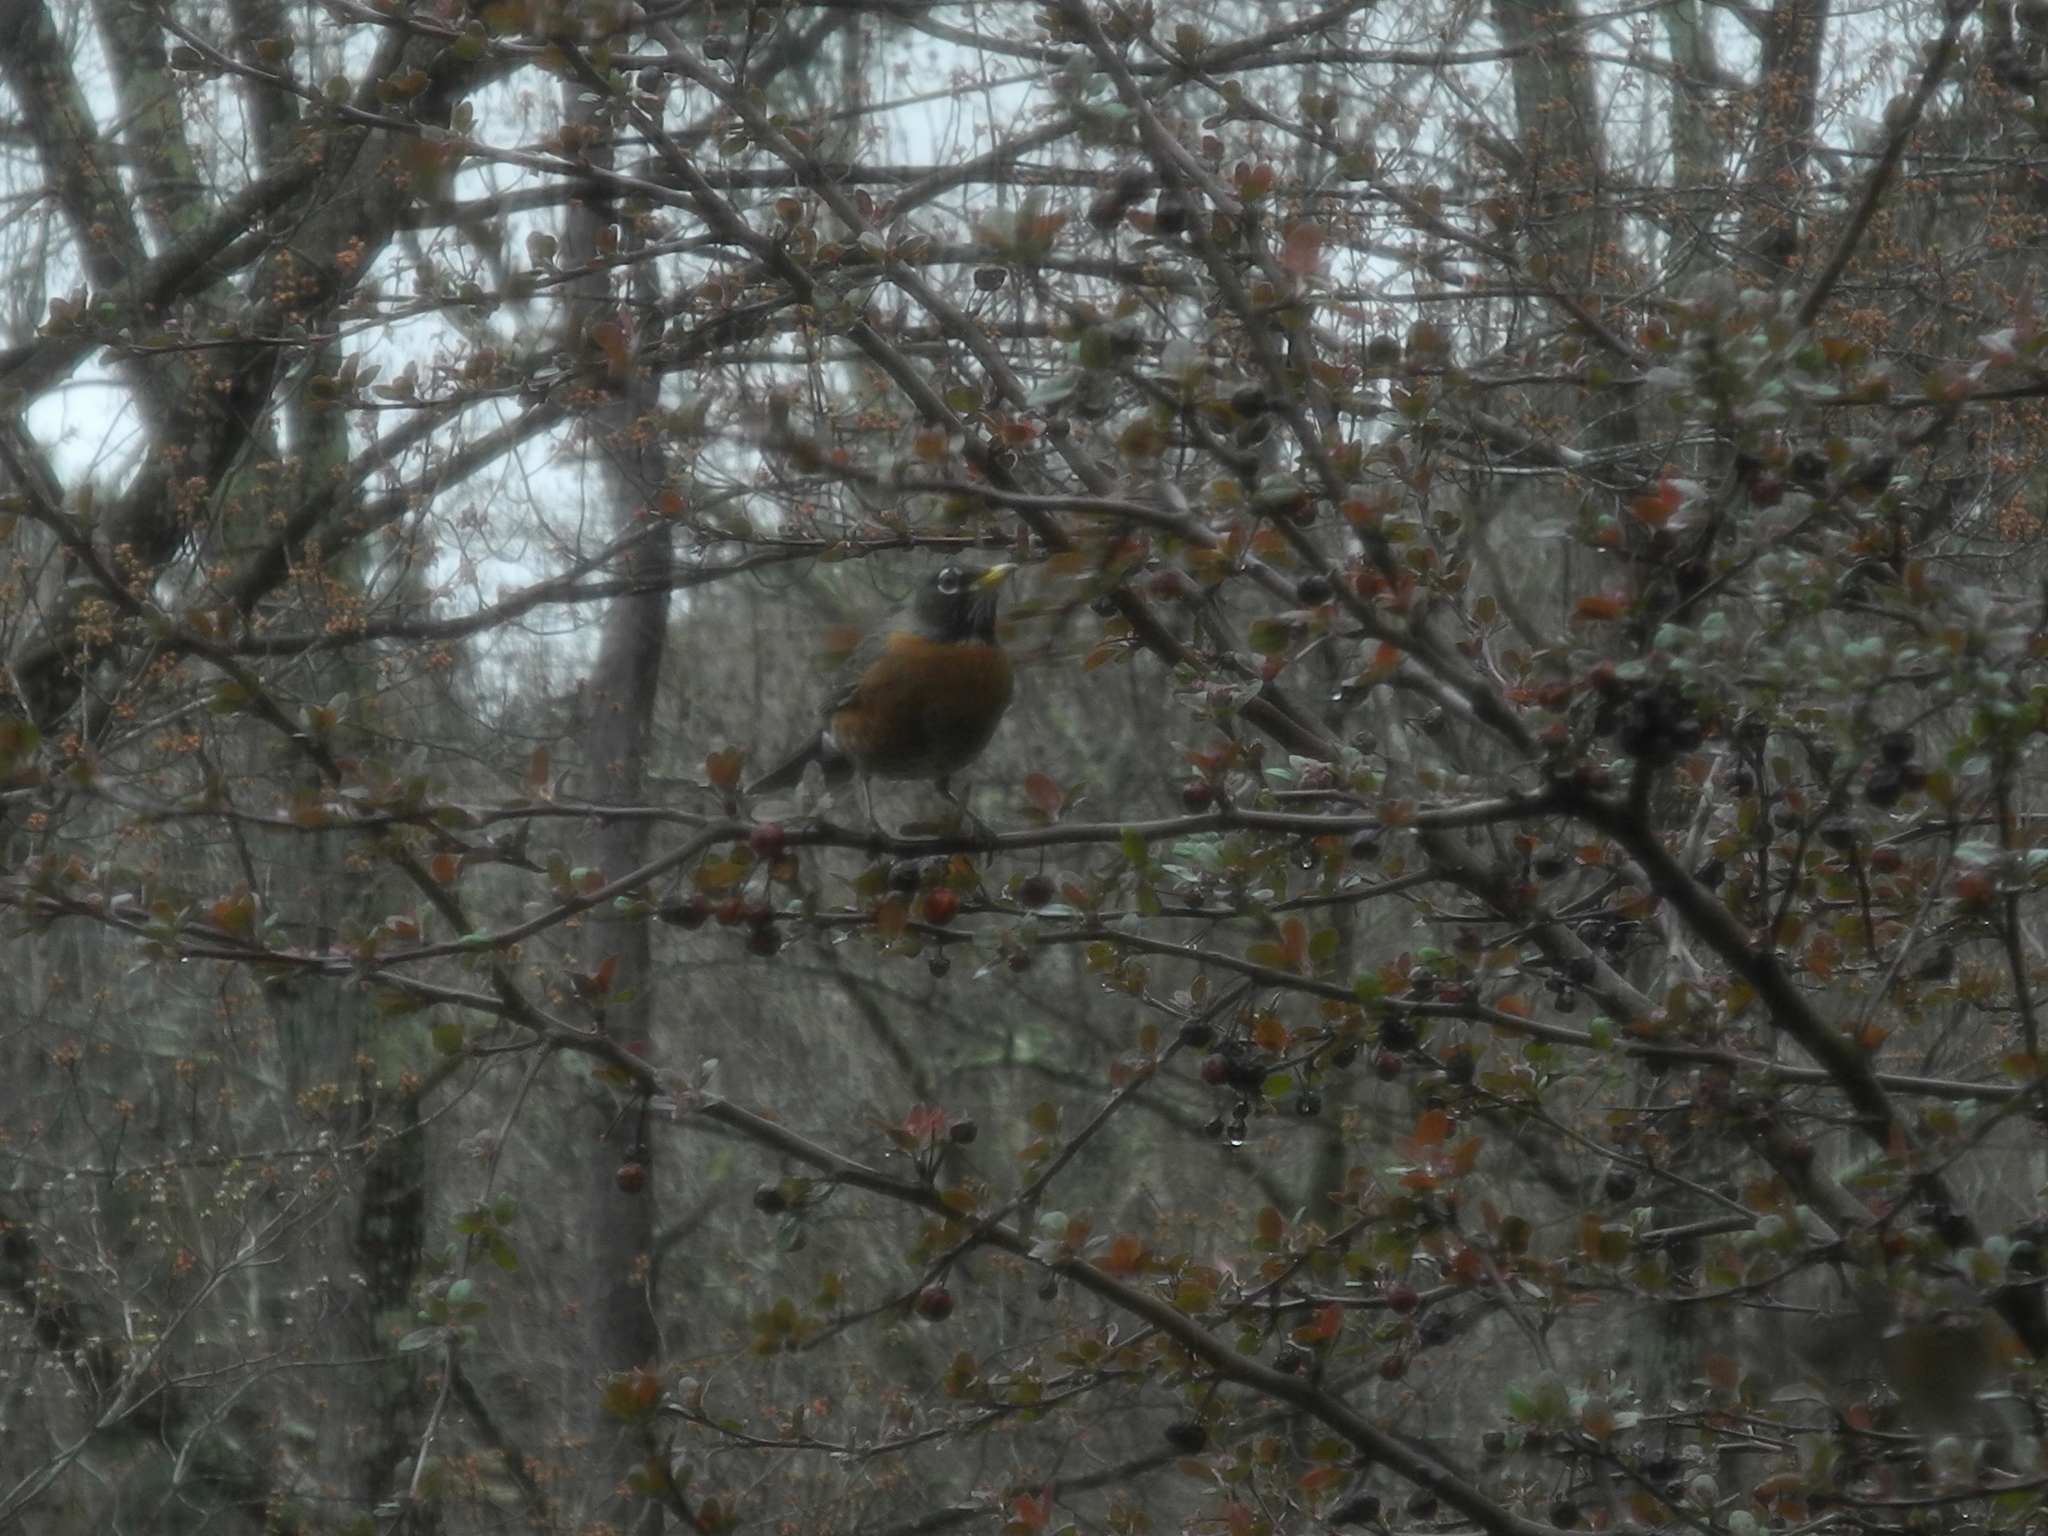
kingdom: Animalia
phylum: Chordata
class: Aves
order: Passeriformes
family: Turdidae
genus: Turdus
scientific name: Turdus migratorius
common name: American robin
